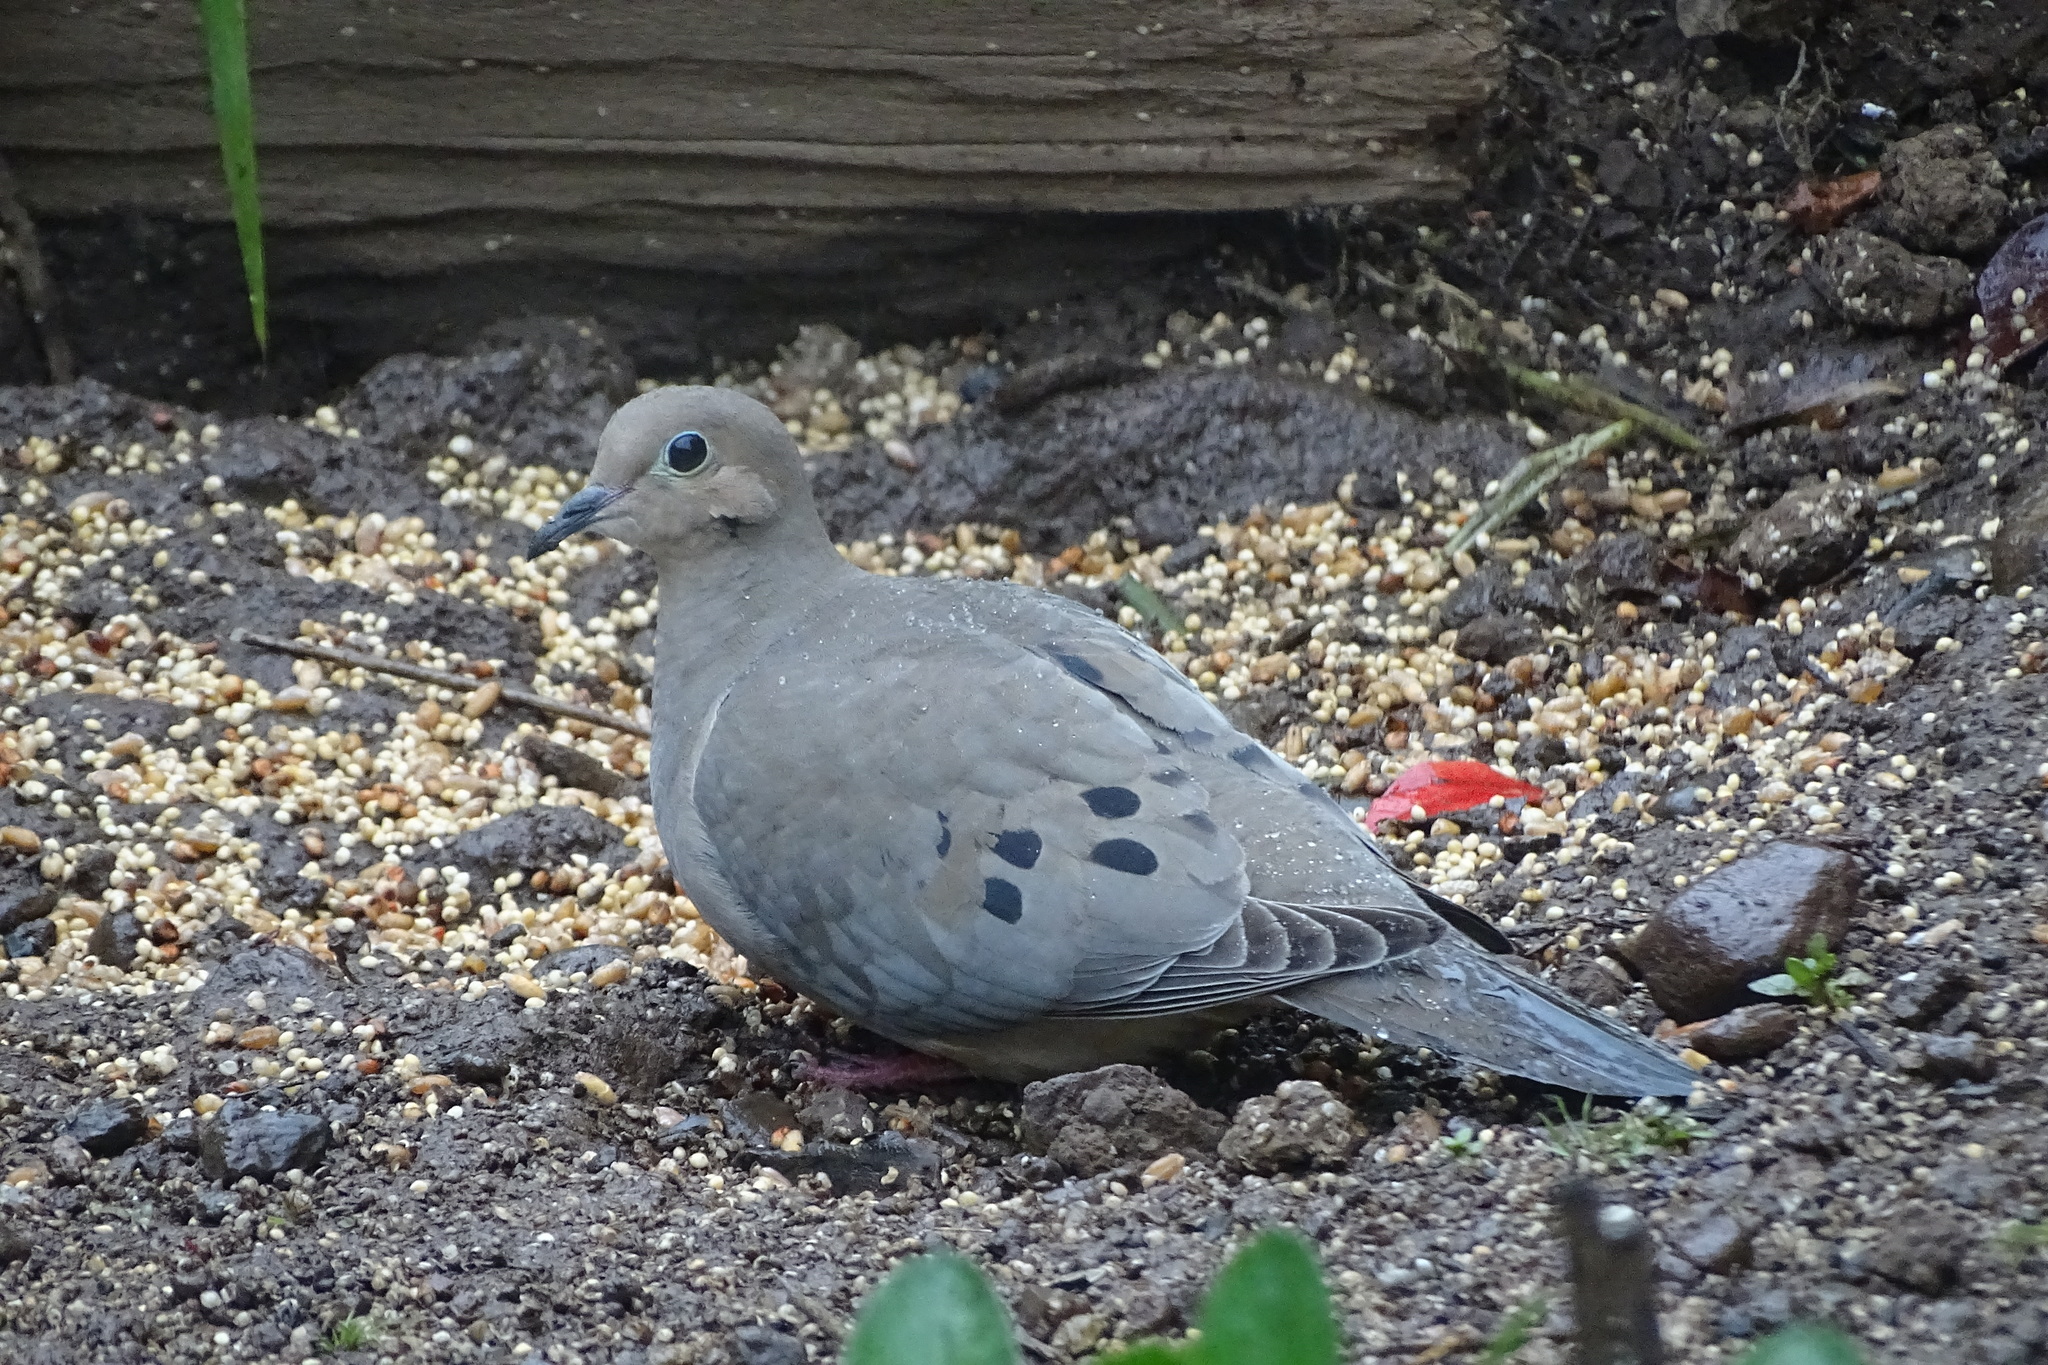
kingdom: Animalia
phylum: Chordata
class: Aves
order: Columbiformes
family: Columbidae
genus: Zenaida
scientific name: Zenaida macroura
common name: Mourning dove
